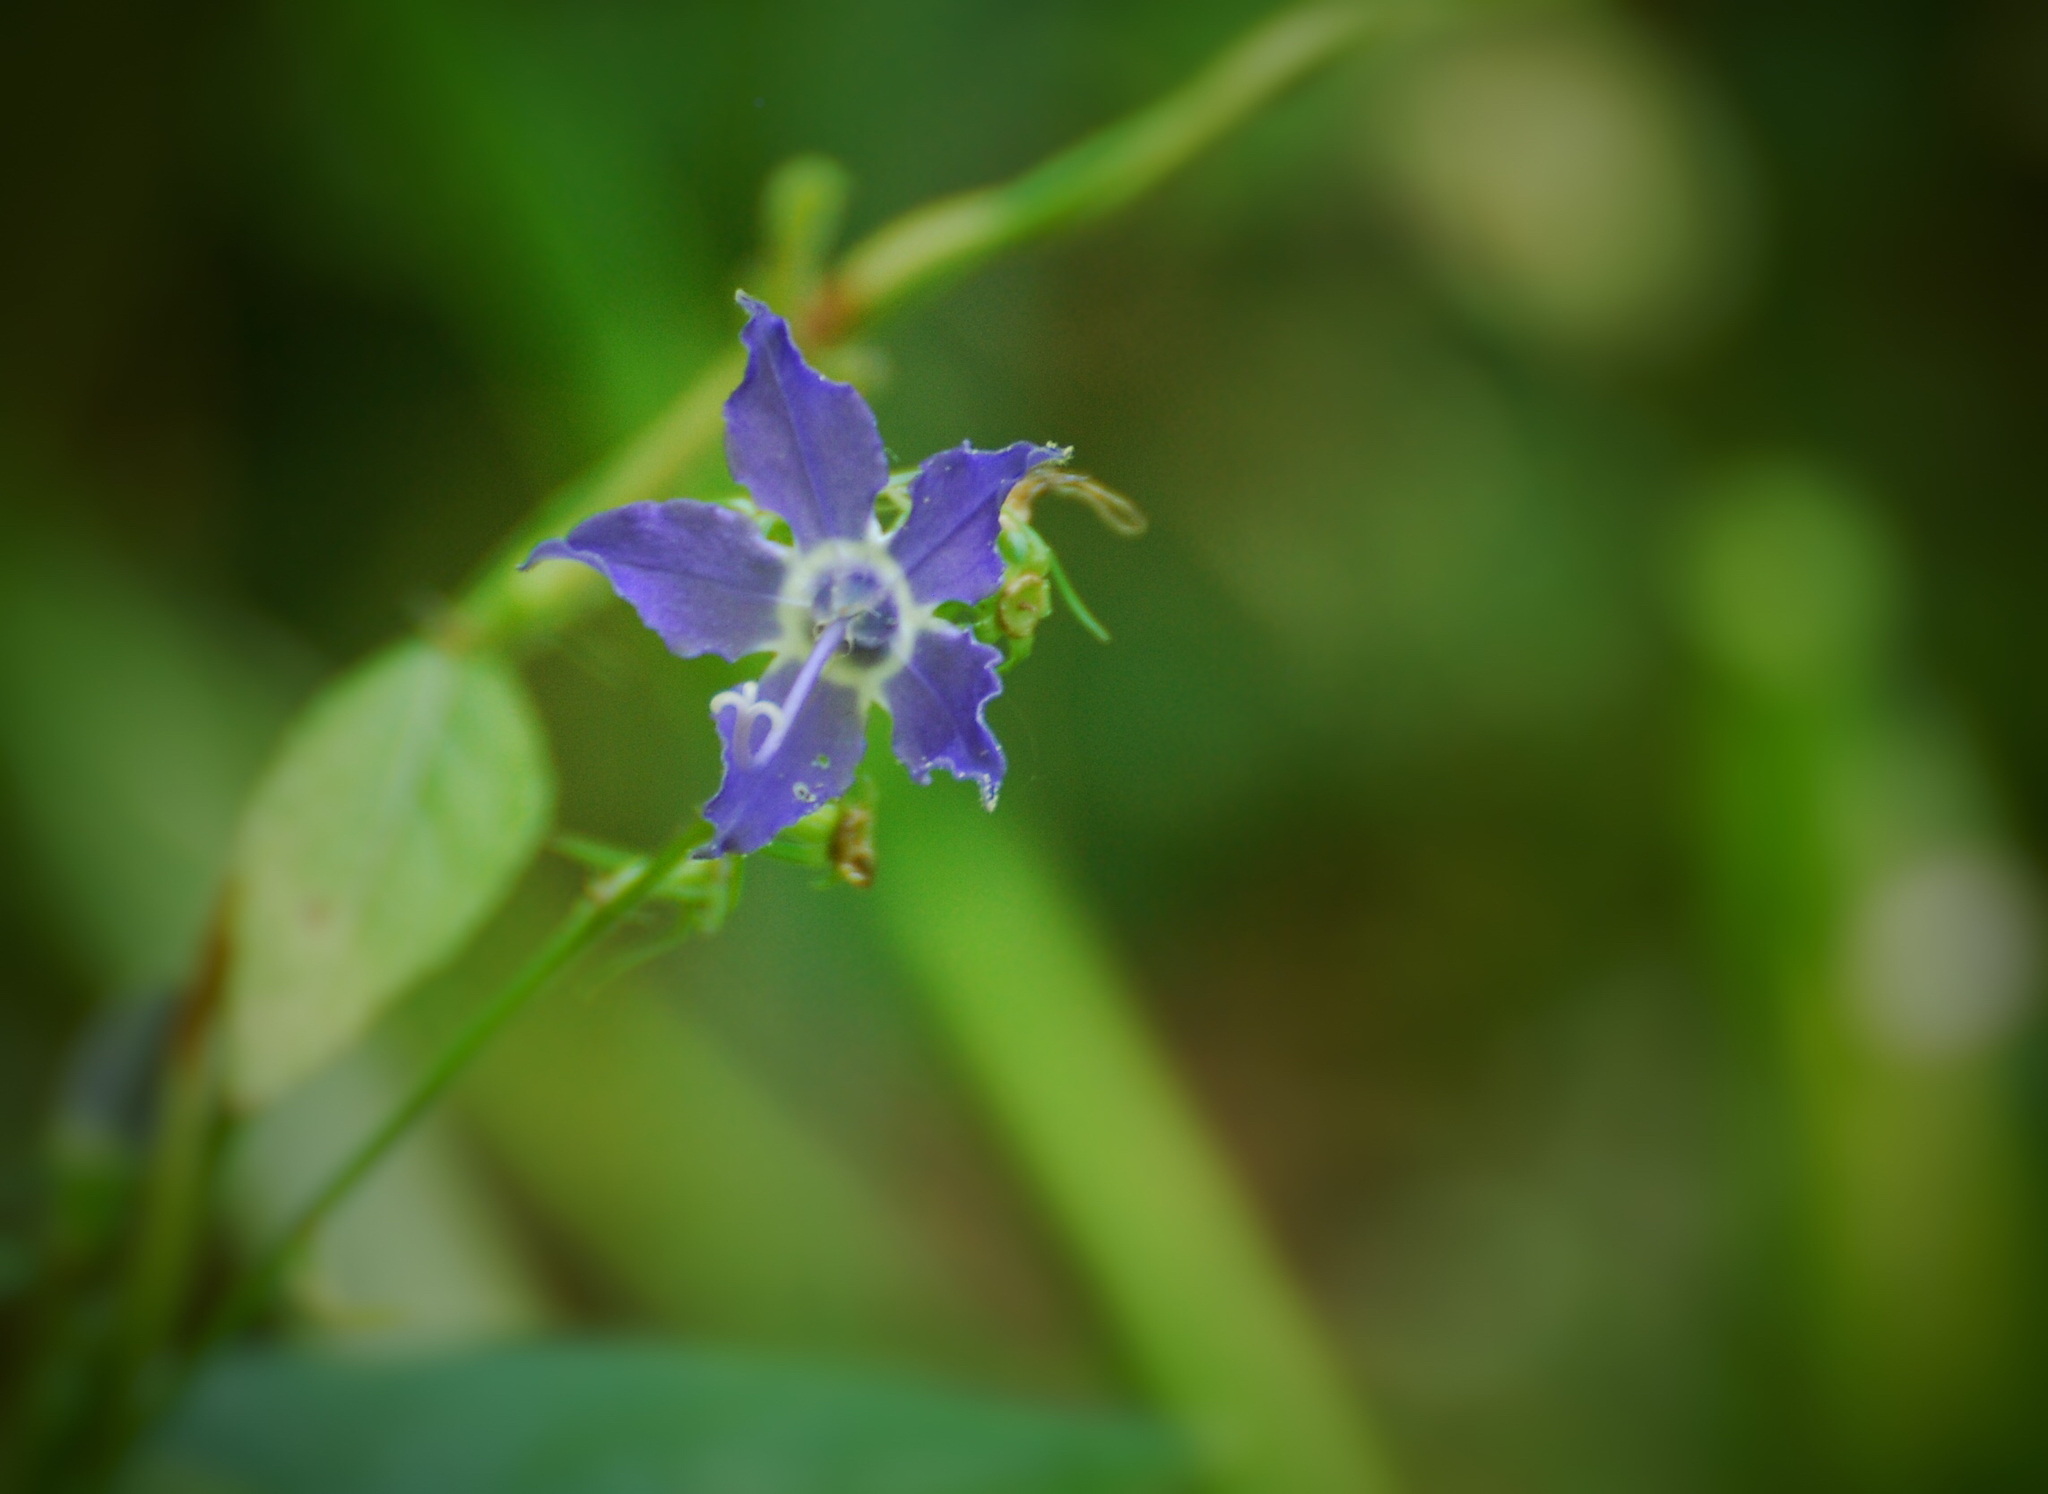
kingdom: Plantae
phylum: Tracheophyta
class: Magnoliopsida
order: Asterales
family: Campanulaceae
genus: Campanulastrum
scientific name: Campanulastrum americanum
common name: American bellflower
